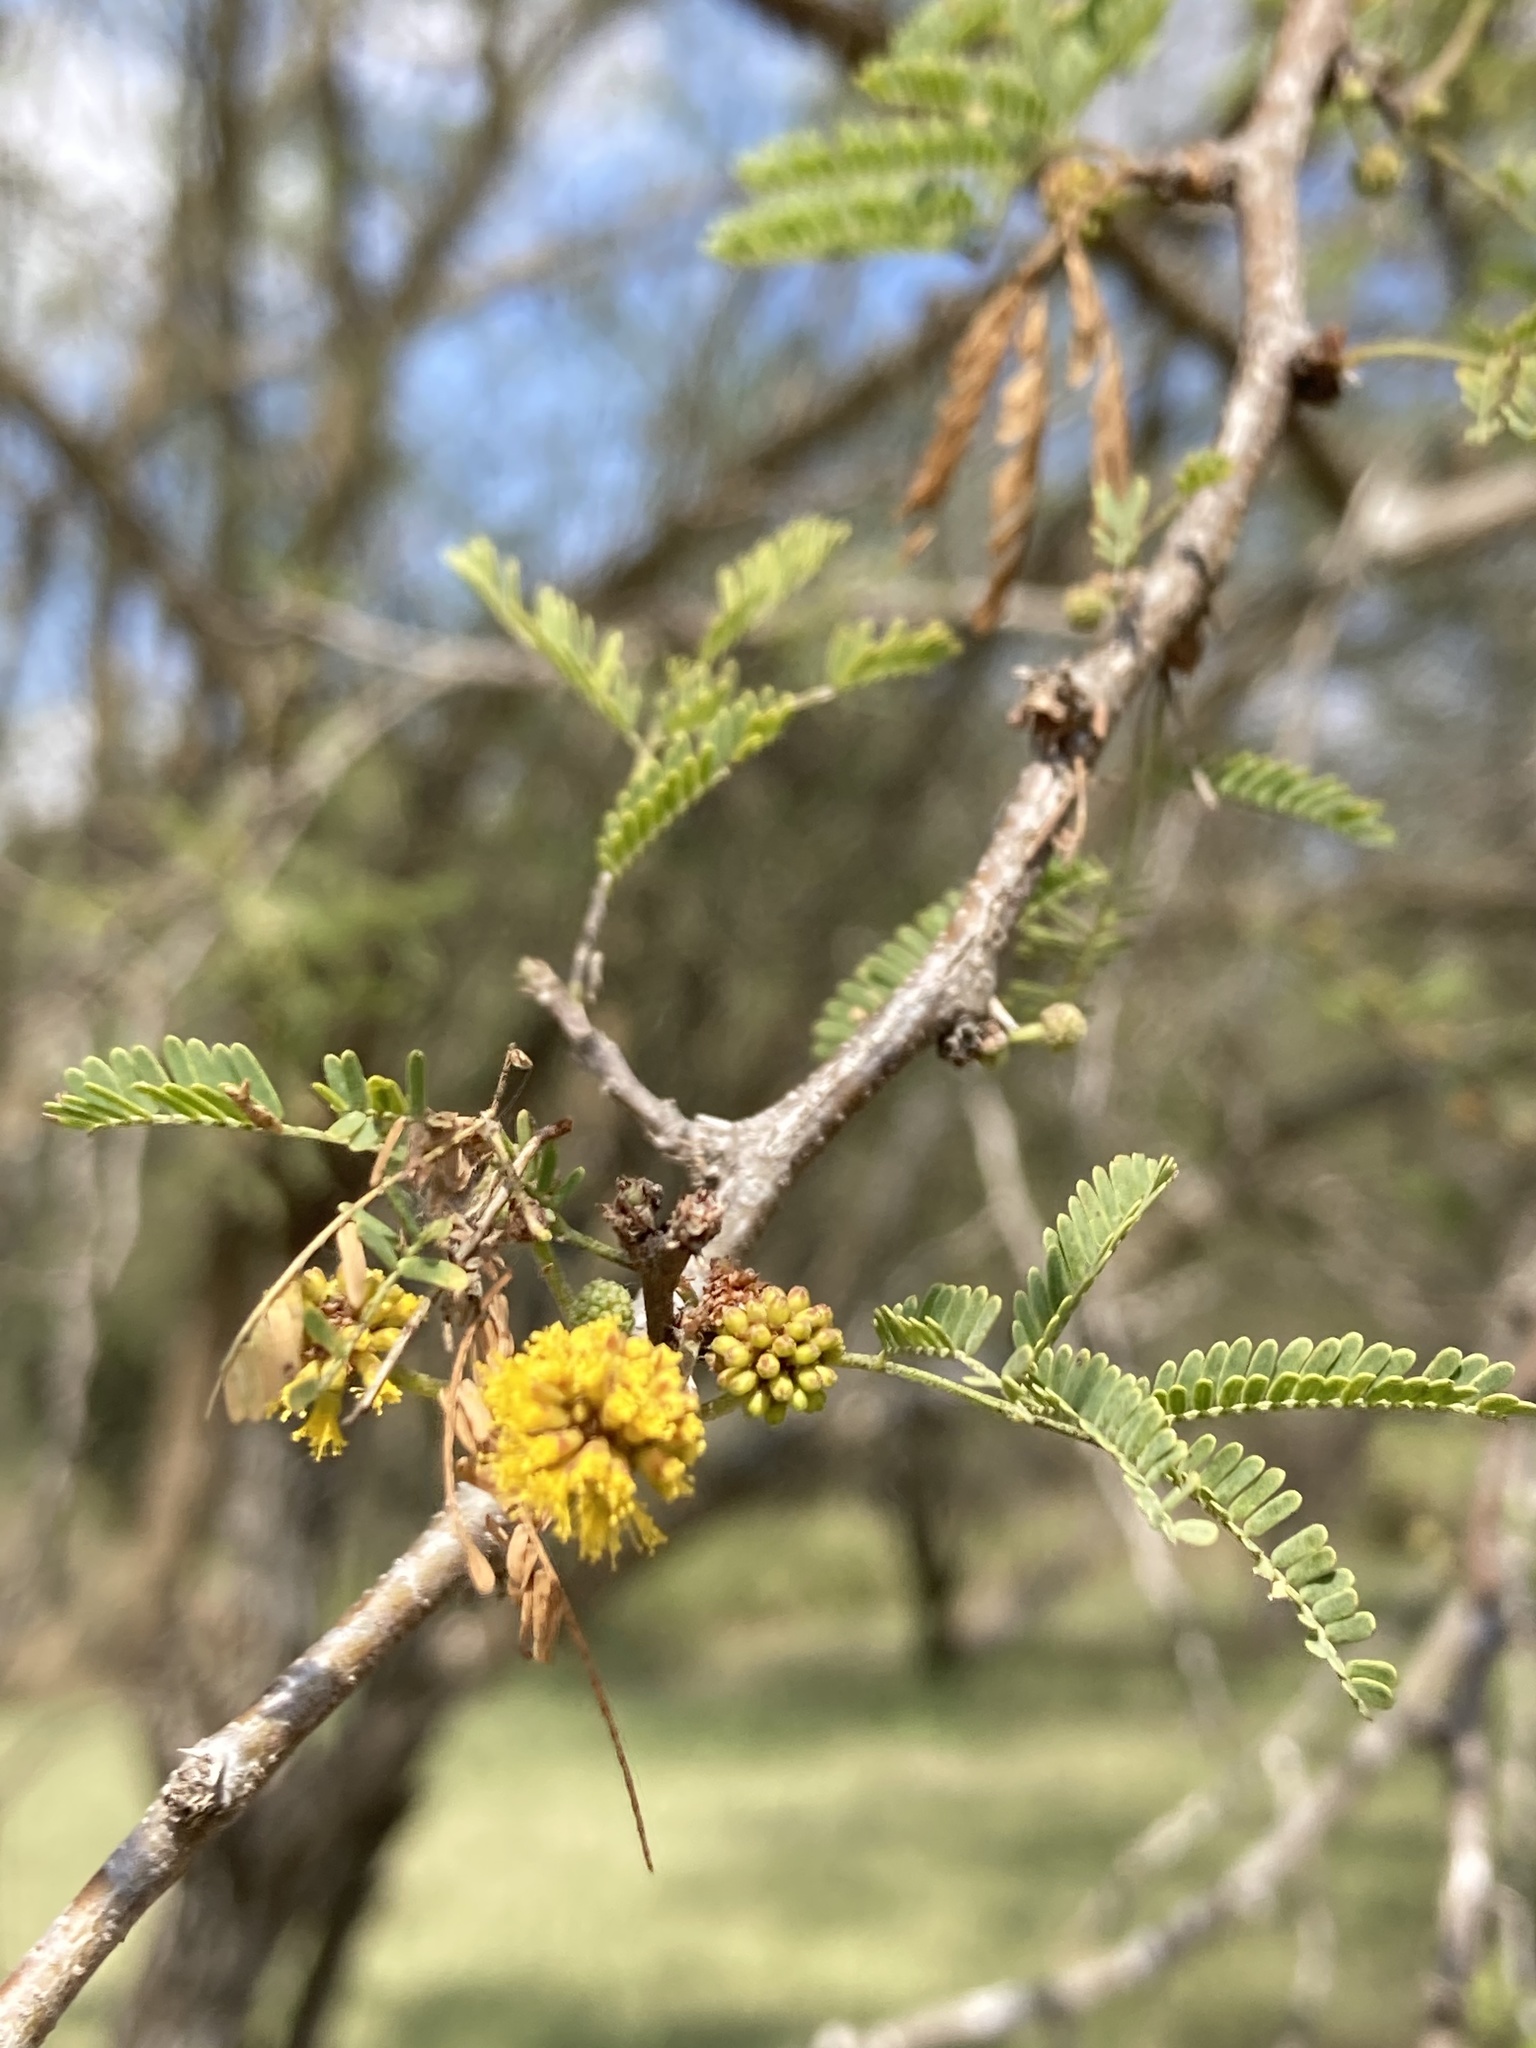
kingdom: Plantae
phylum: Tracheophyta
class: Magnoliopsida
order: Fabales
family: Fabaceae
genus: Vachellia
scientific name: Vachellia farnesiana
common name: Sweet acacia
